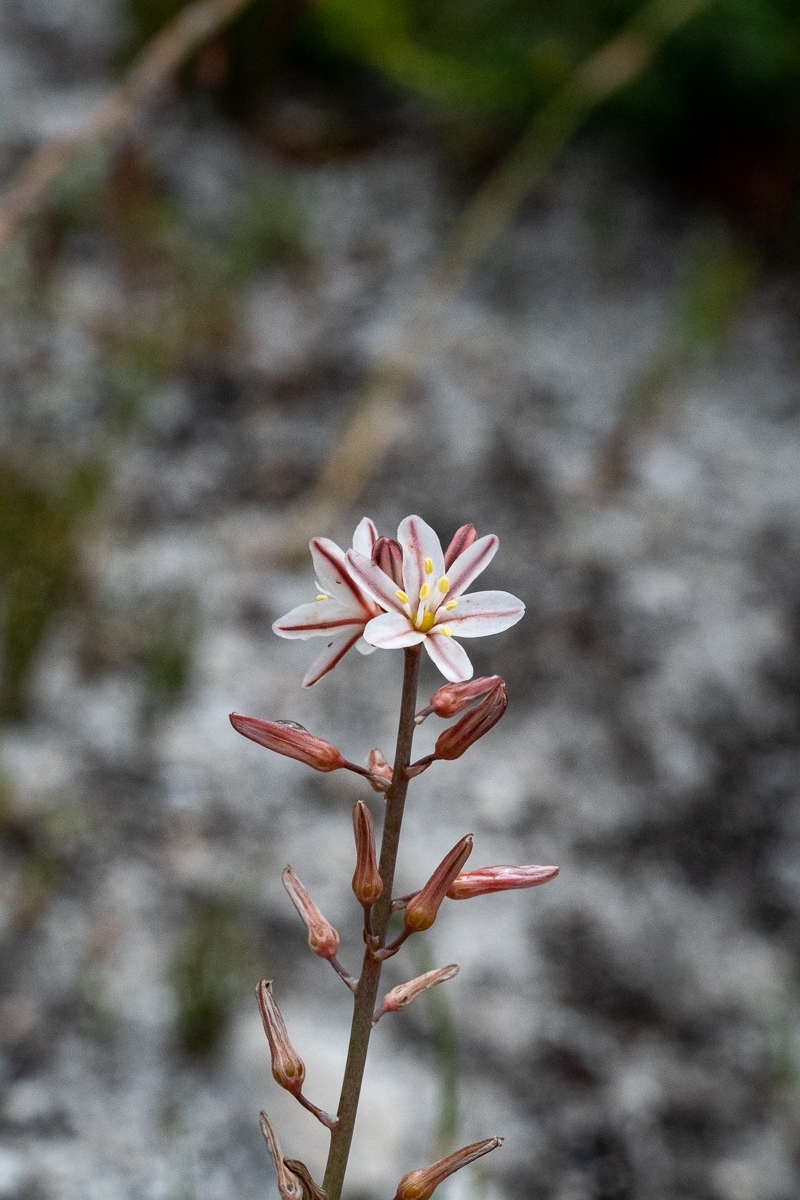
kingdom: Plantae
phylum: Tracheophyta
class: Liliopsida
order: Asparagales
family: Asphodelaceae
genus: Trachyandra
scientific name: Trachyandra hirsuta
